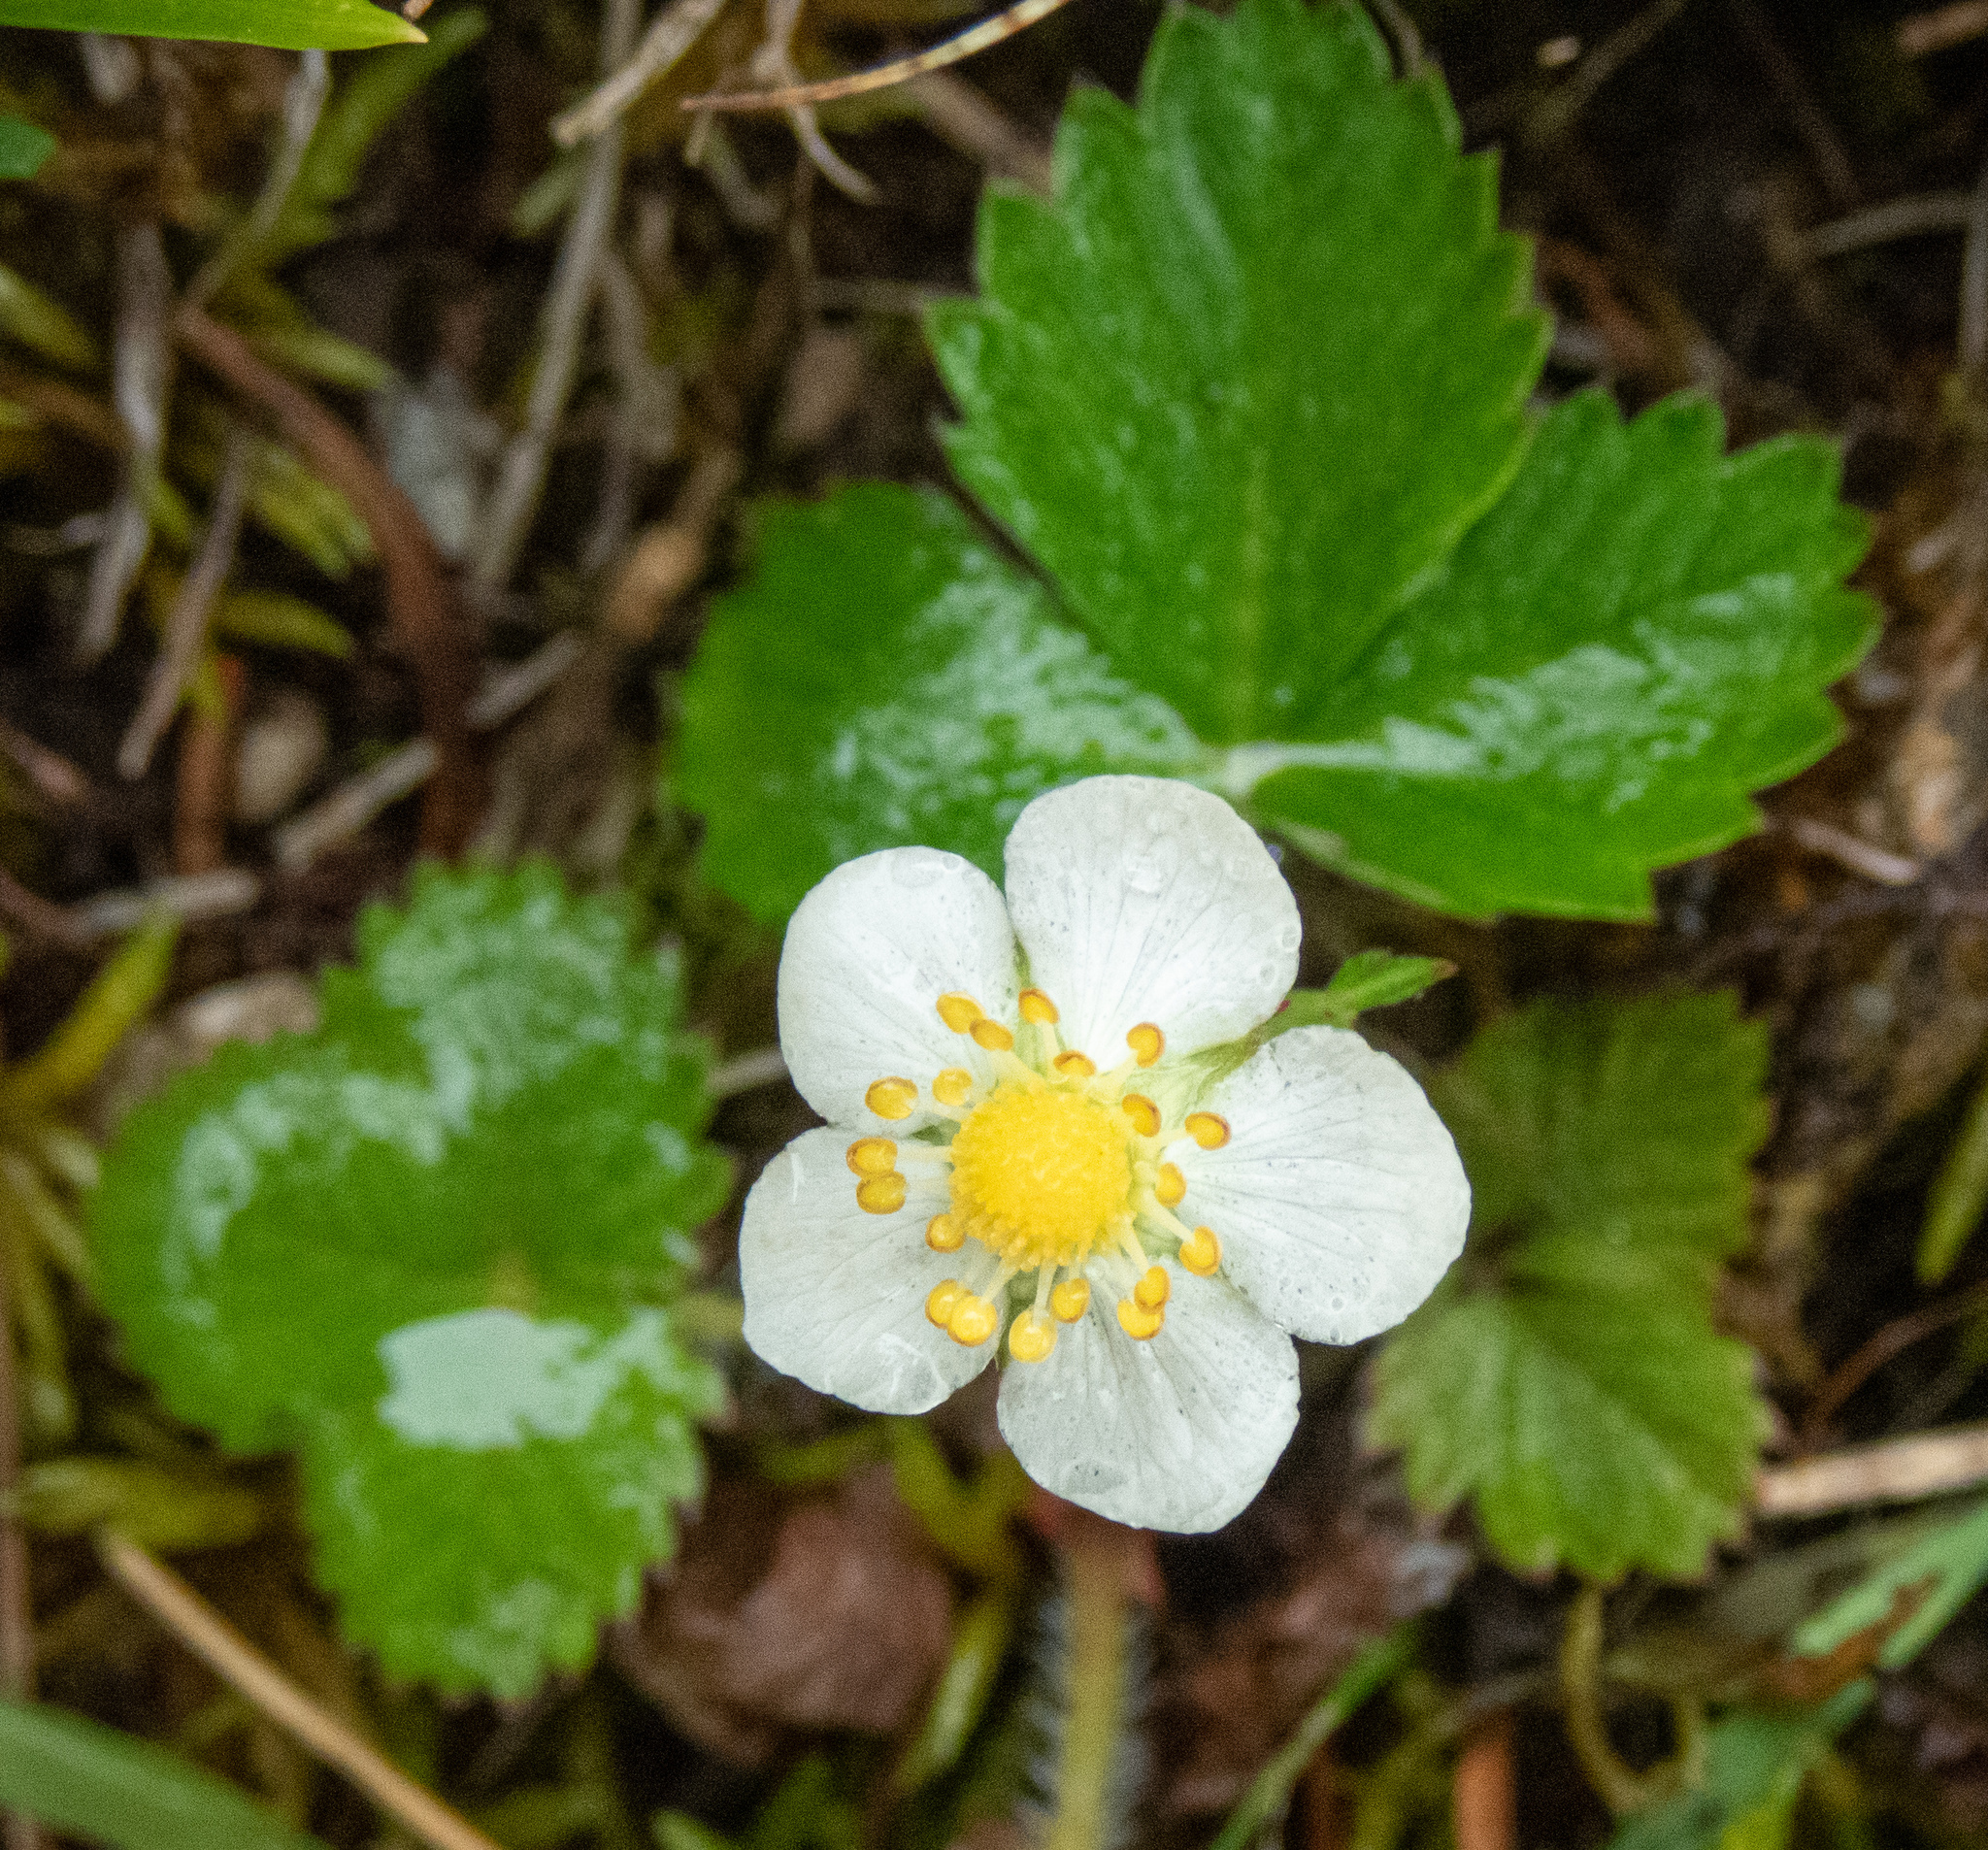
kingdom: Plantae
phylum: Tracheophyta
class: Magnoliopsida
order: Rosales
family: Rosaceae
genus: Fragaria
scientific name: Fragaria vesca
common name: Wild strawberry
